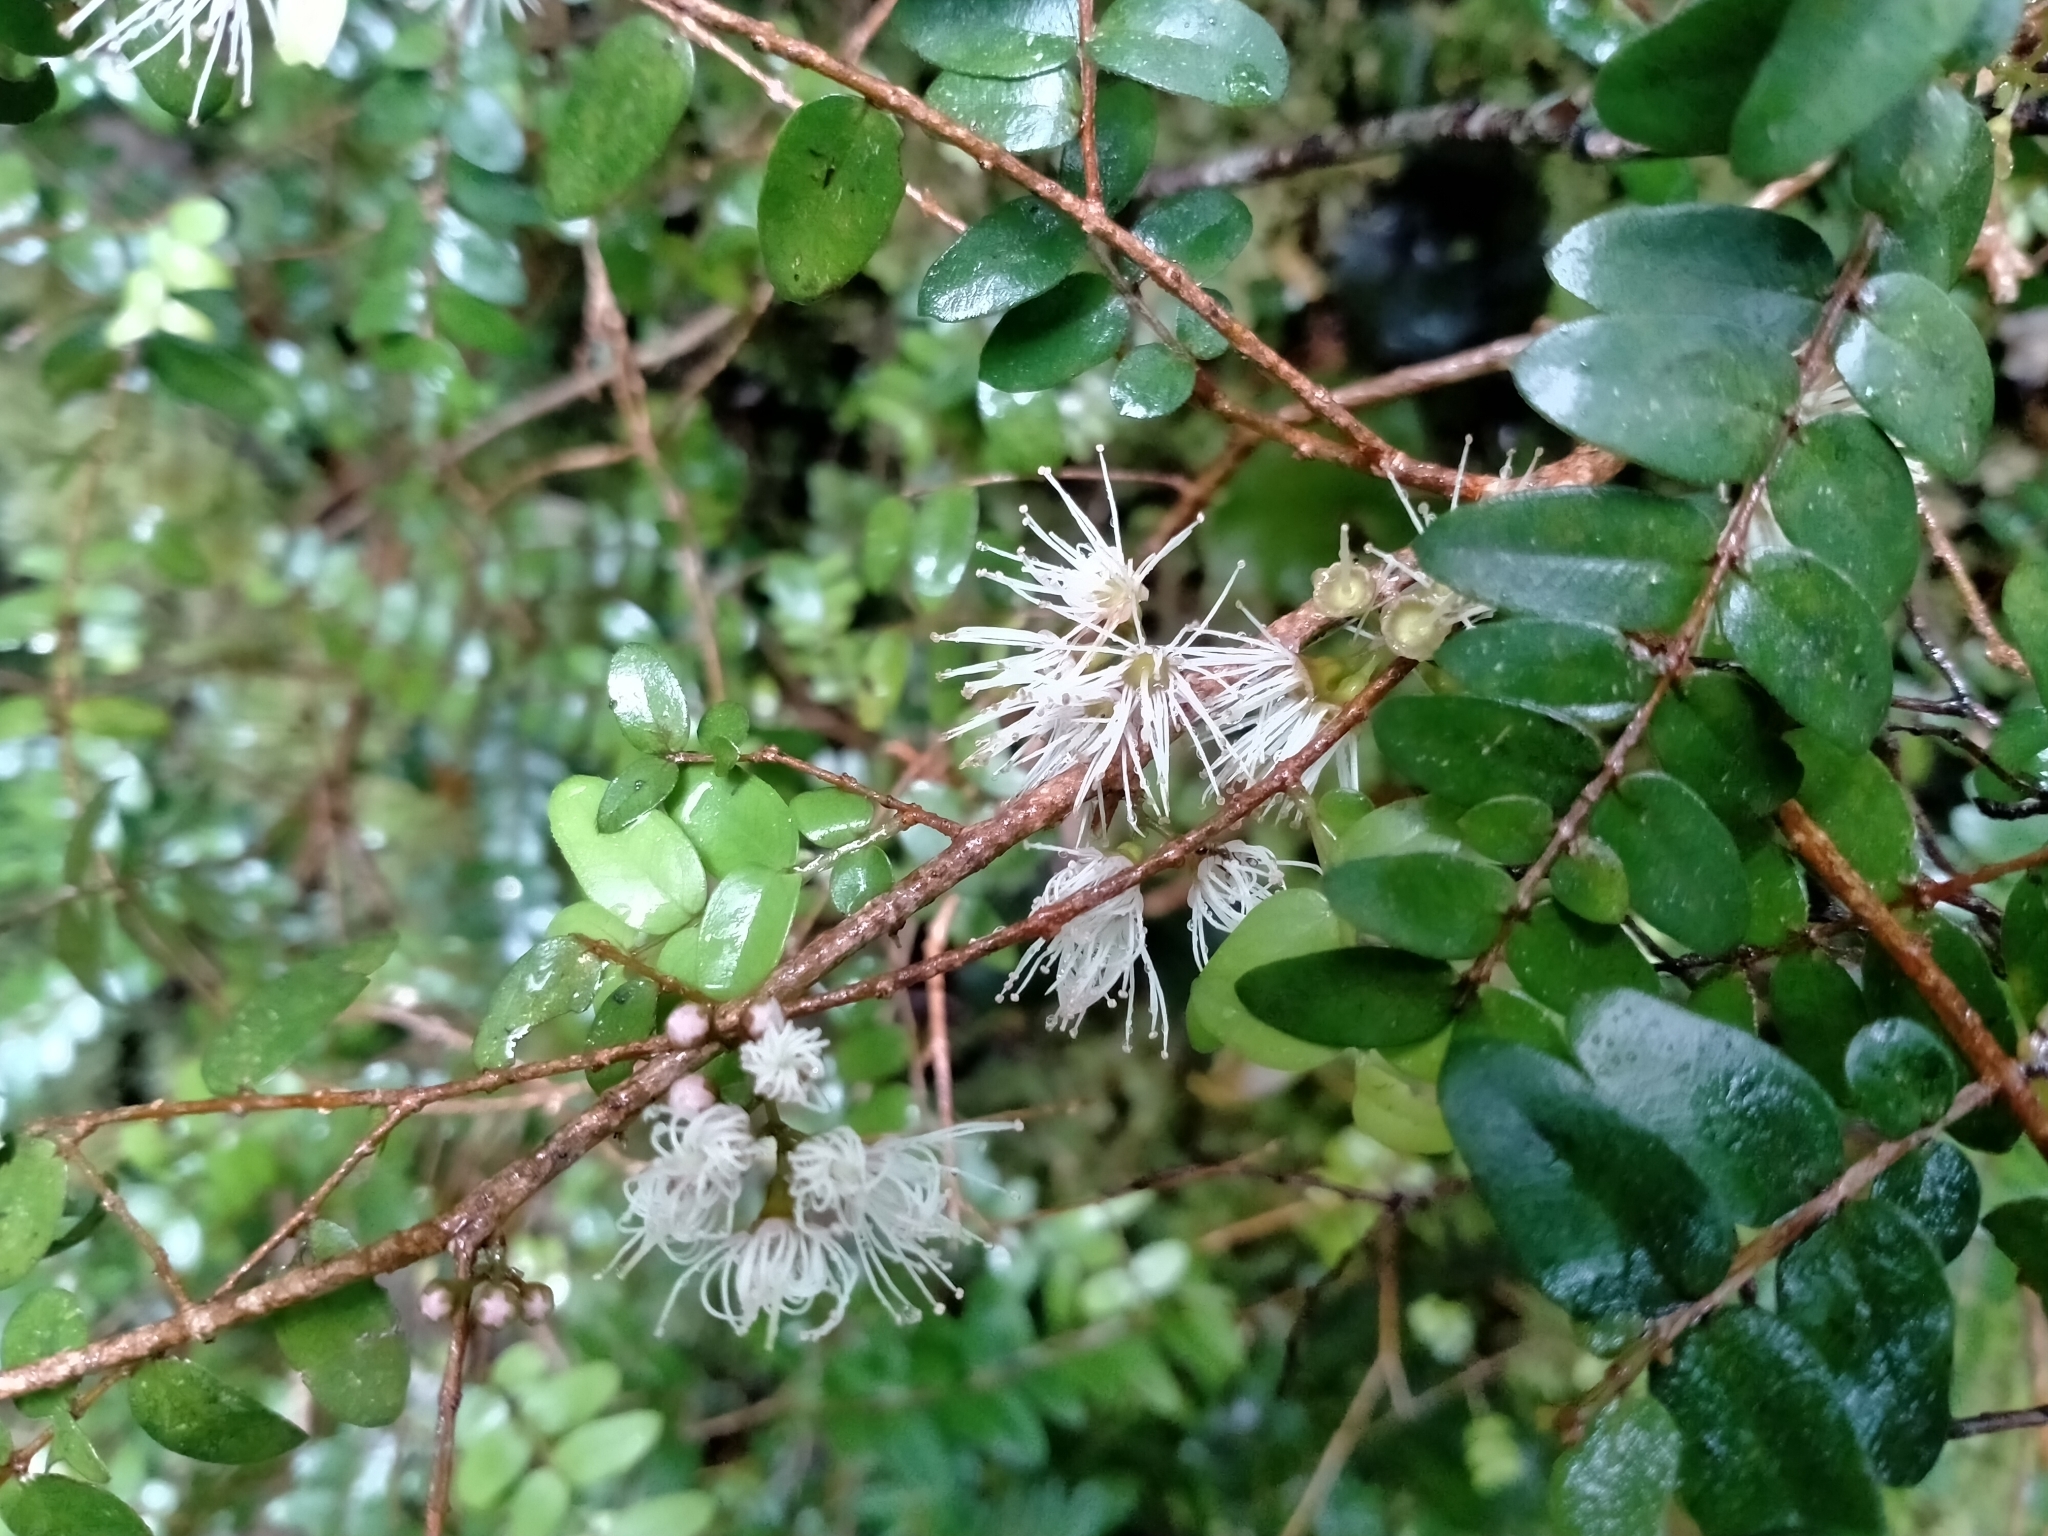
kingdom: Plantae
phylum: Tracheophyta
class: Magnoliopsida
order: Myrtales
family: Myrtaceae
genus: Metrosideros
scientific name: Metrosideros diffusa
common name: Small ratavine
